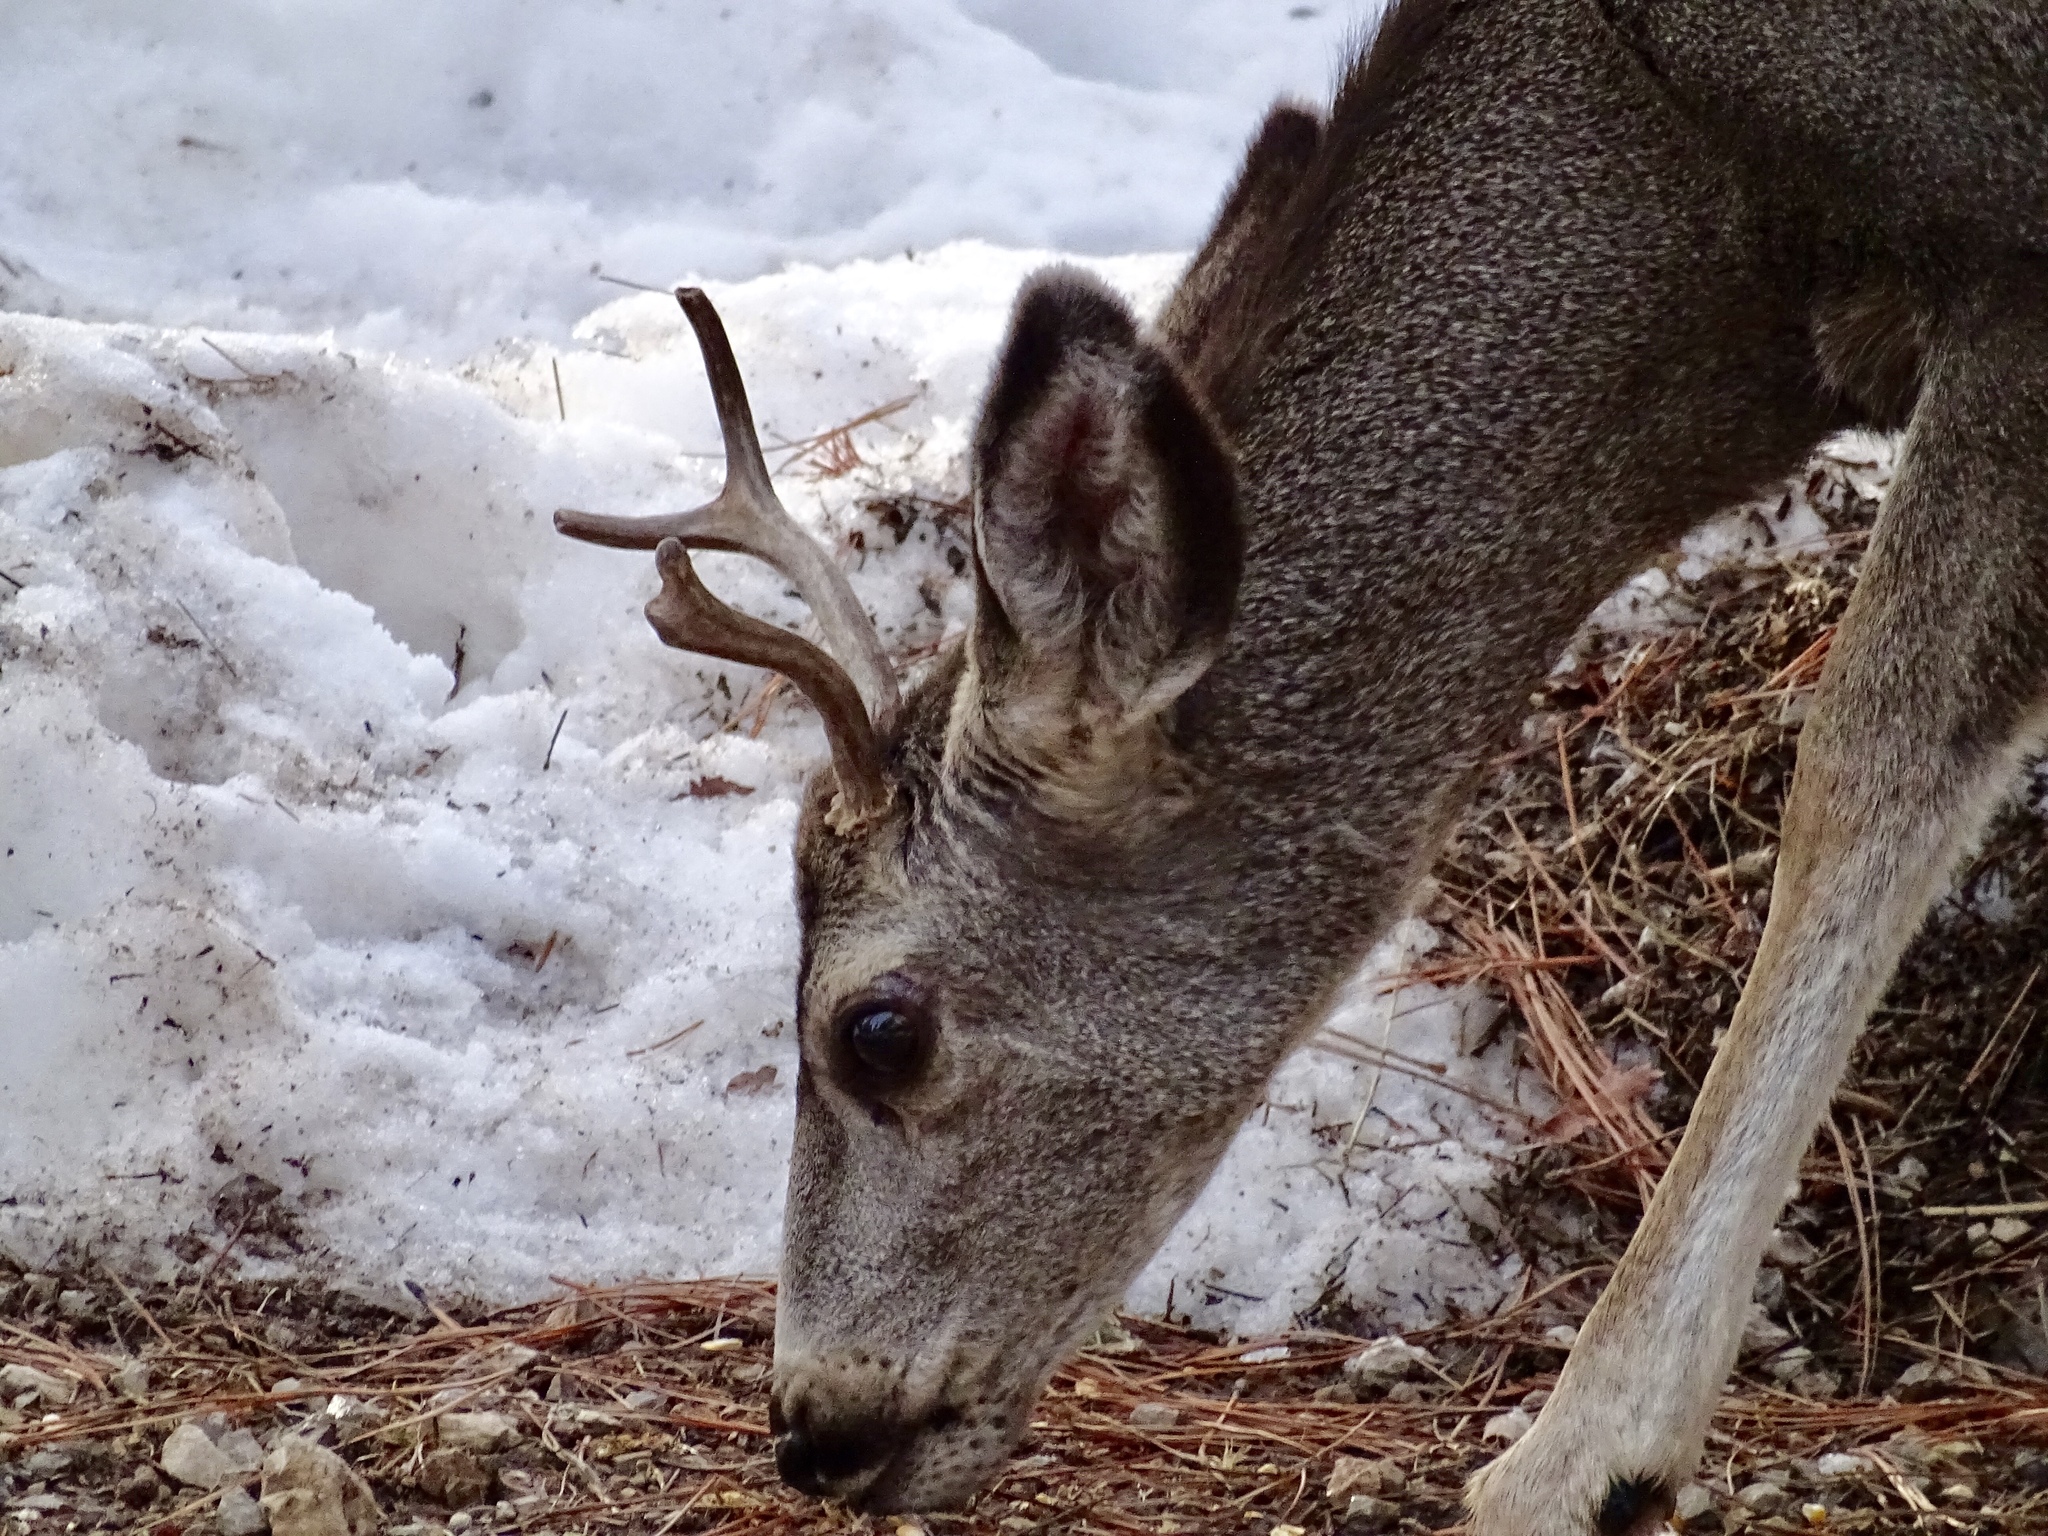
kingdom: Animalia
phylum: Chordata
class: Mammalia
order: Artiodactyla
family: Cervidae
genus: Odocoileus
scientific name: Odocoileus hemionus
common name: Mule deer
